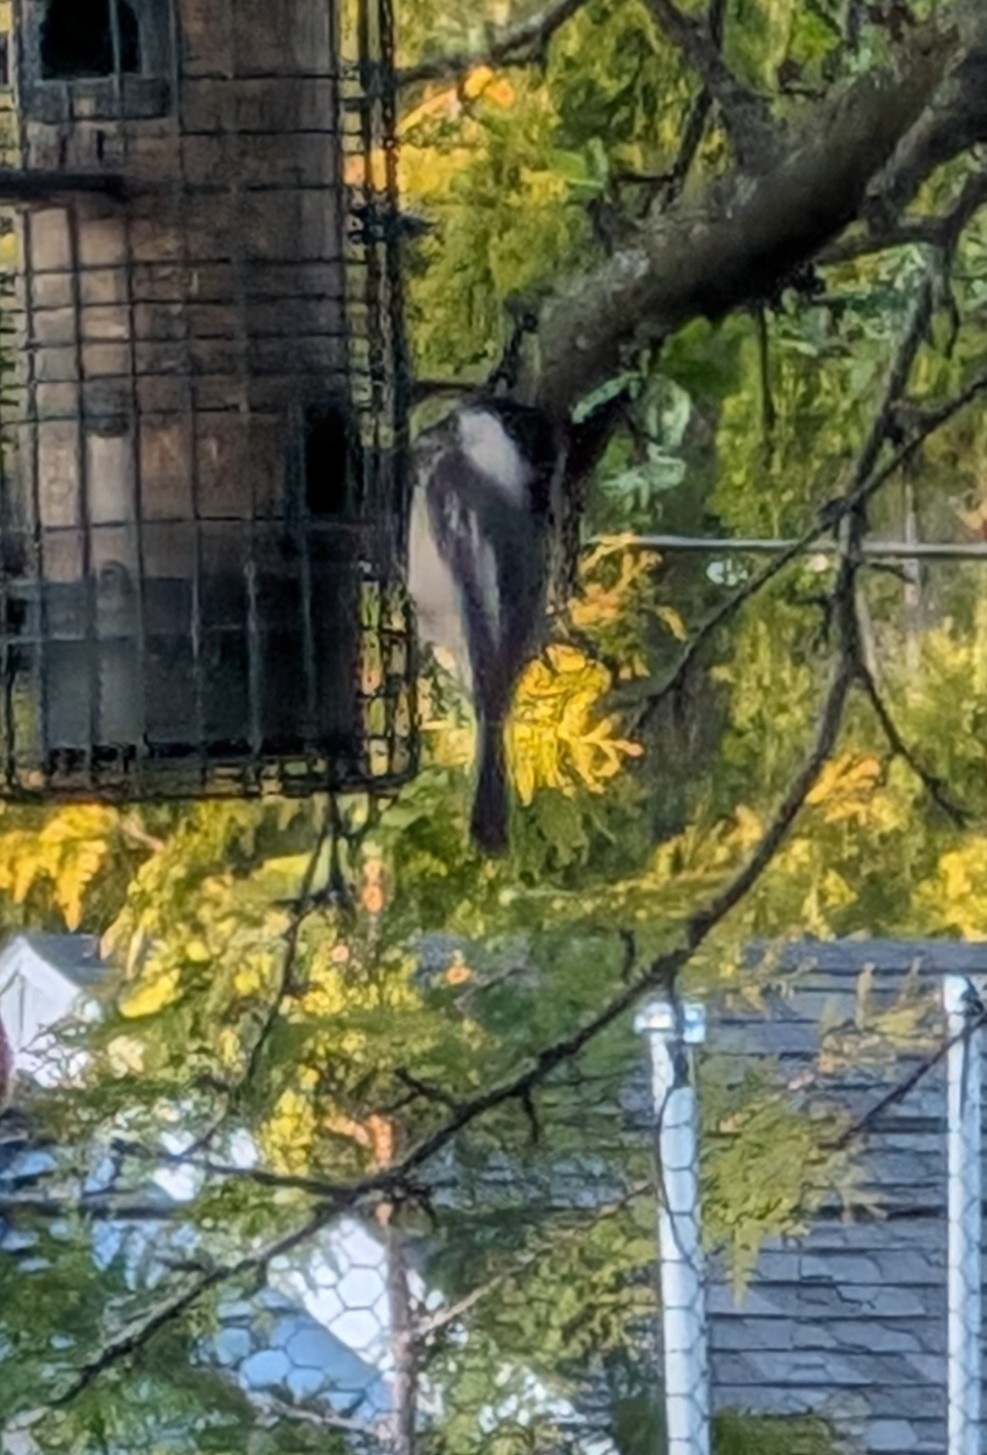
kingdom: Animalia
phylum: Chordata
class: Aves
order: Passeriformes
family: Paridae
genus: Poecile
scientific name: Poecile atricapillus
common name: Black-capped chickadee
